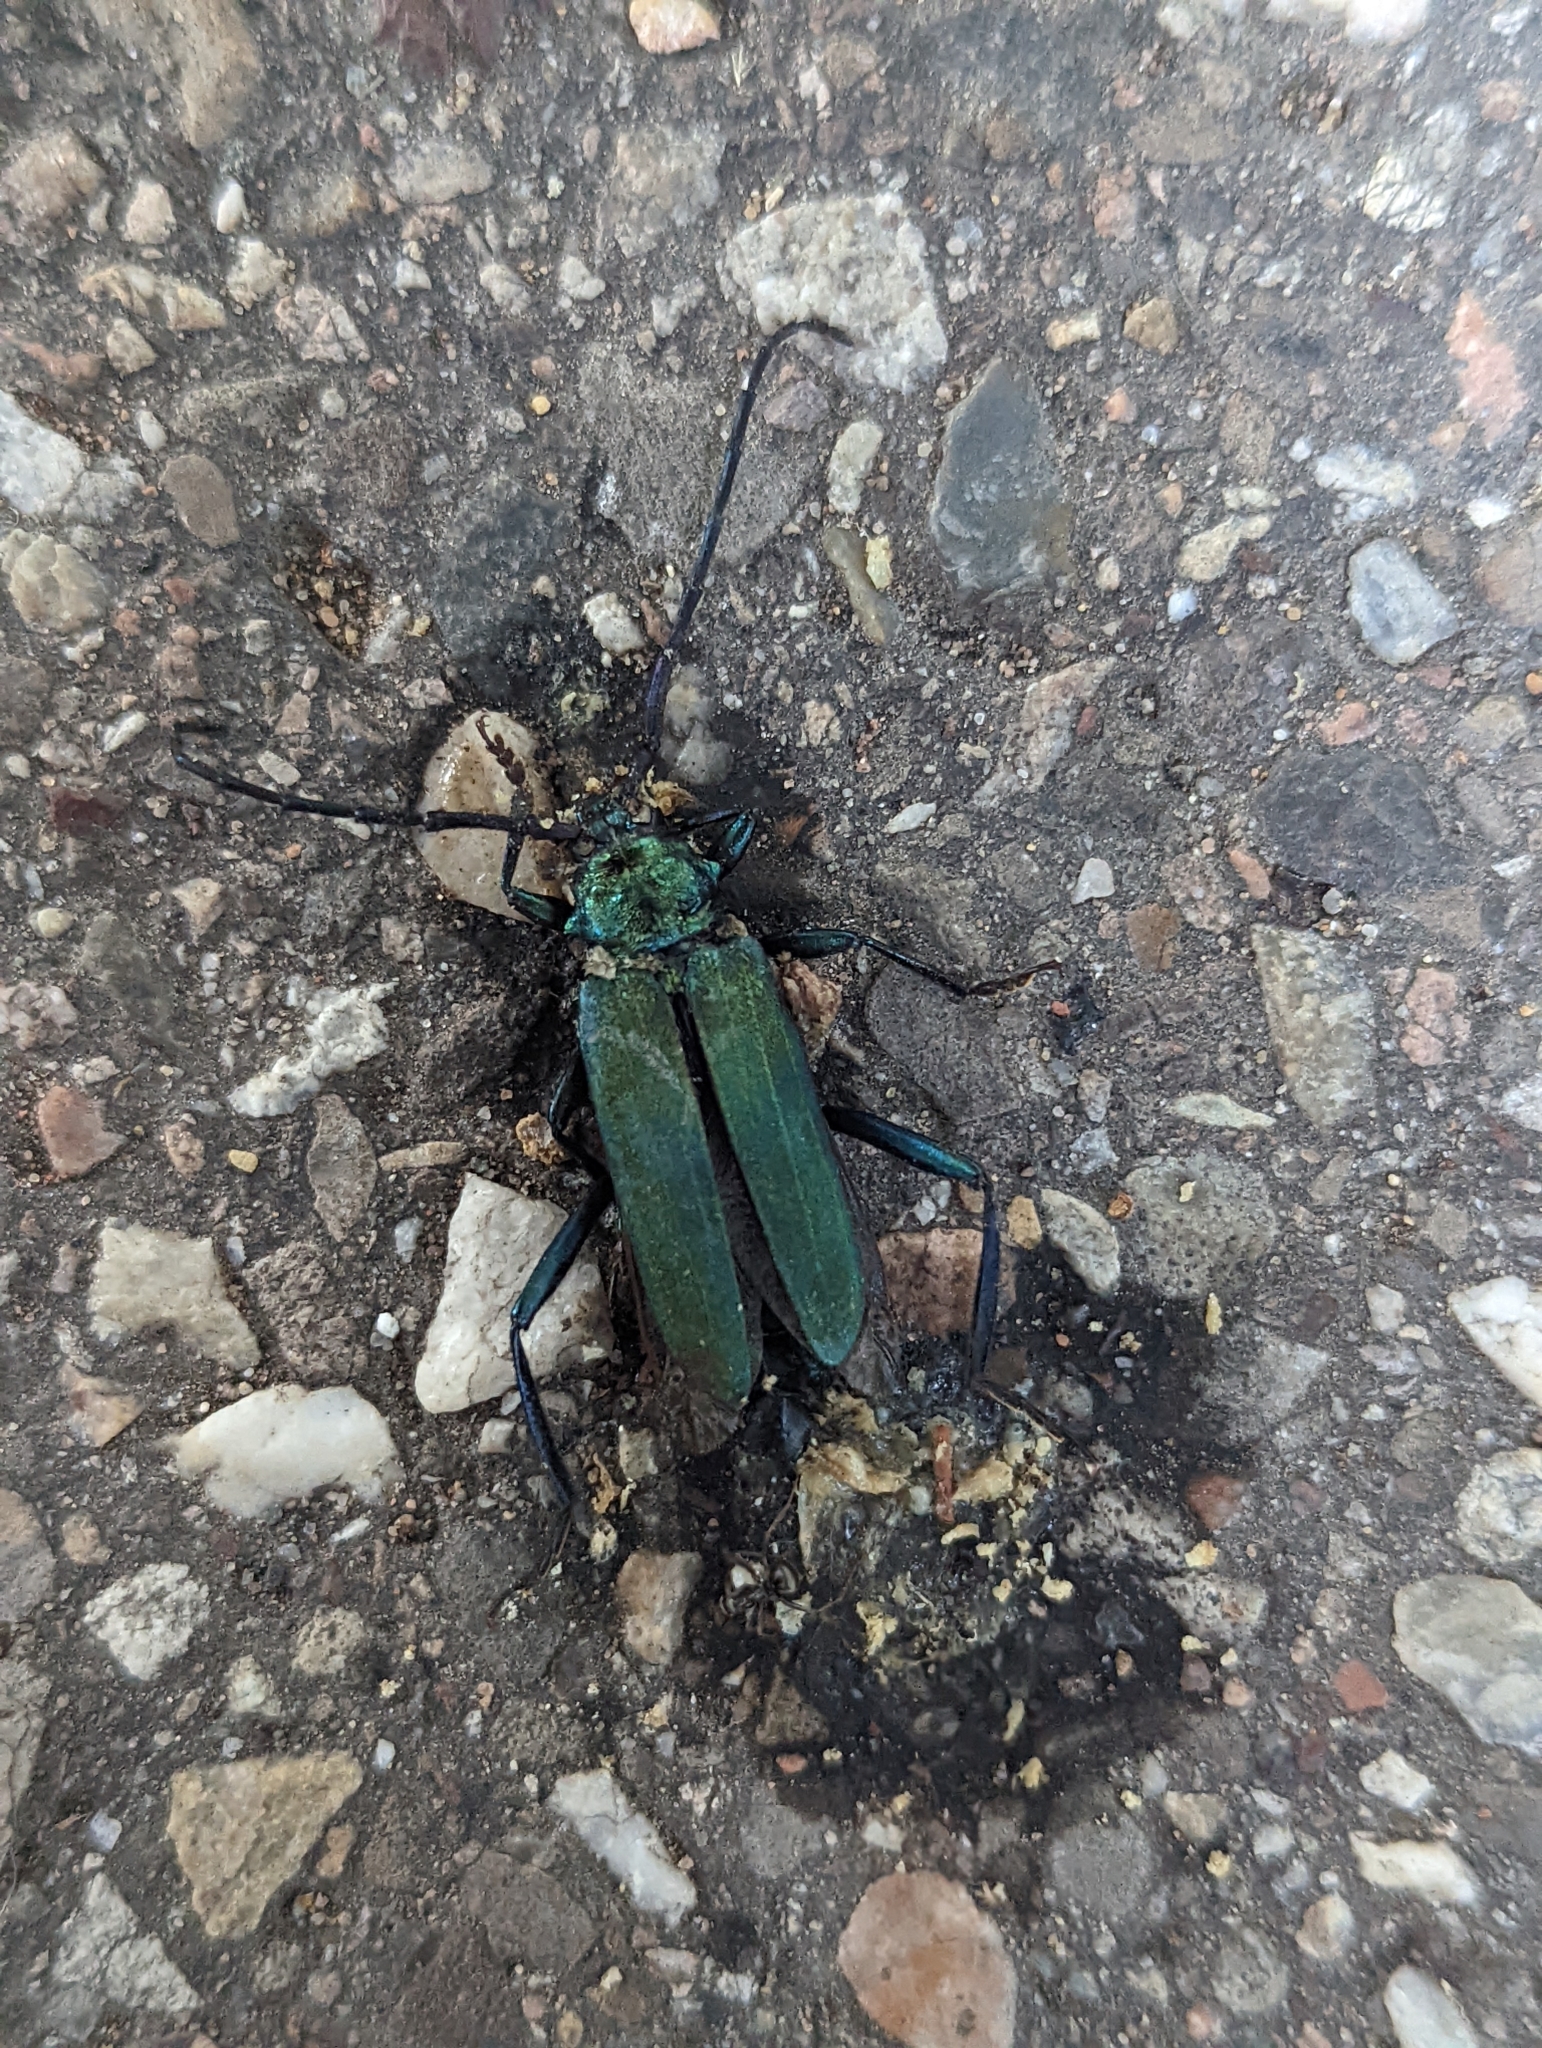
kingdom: Animalia
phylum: Arthropoda
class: Insecta
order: Coleoptera
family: Cerambycidae
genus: Aromia
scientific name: Aromia moschata
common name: Musk beetle
